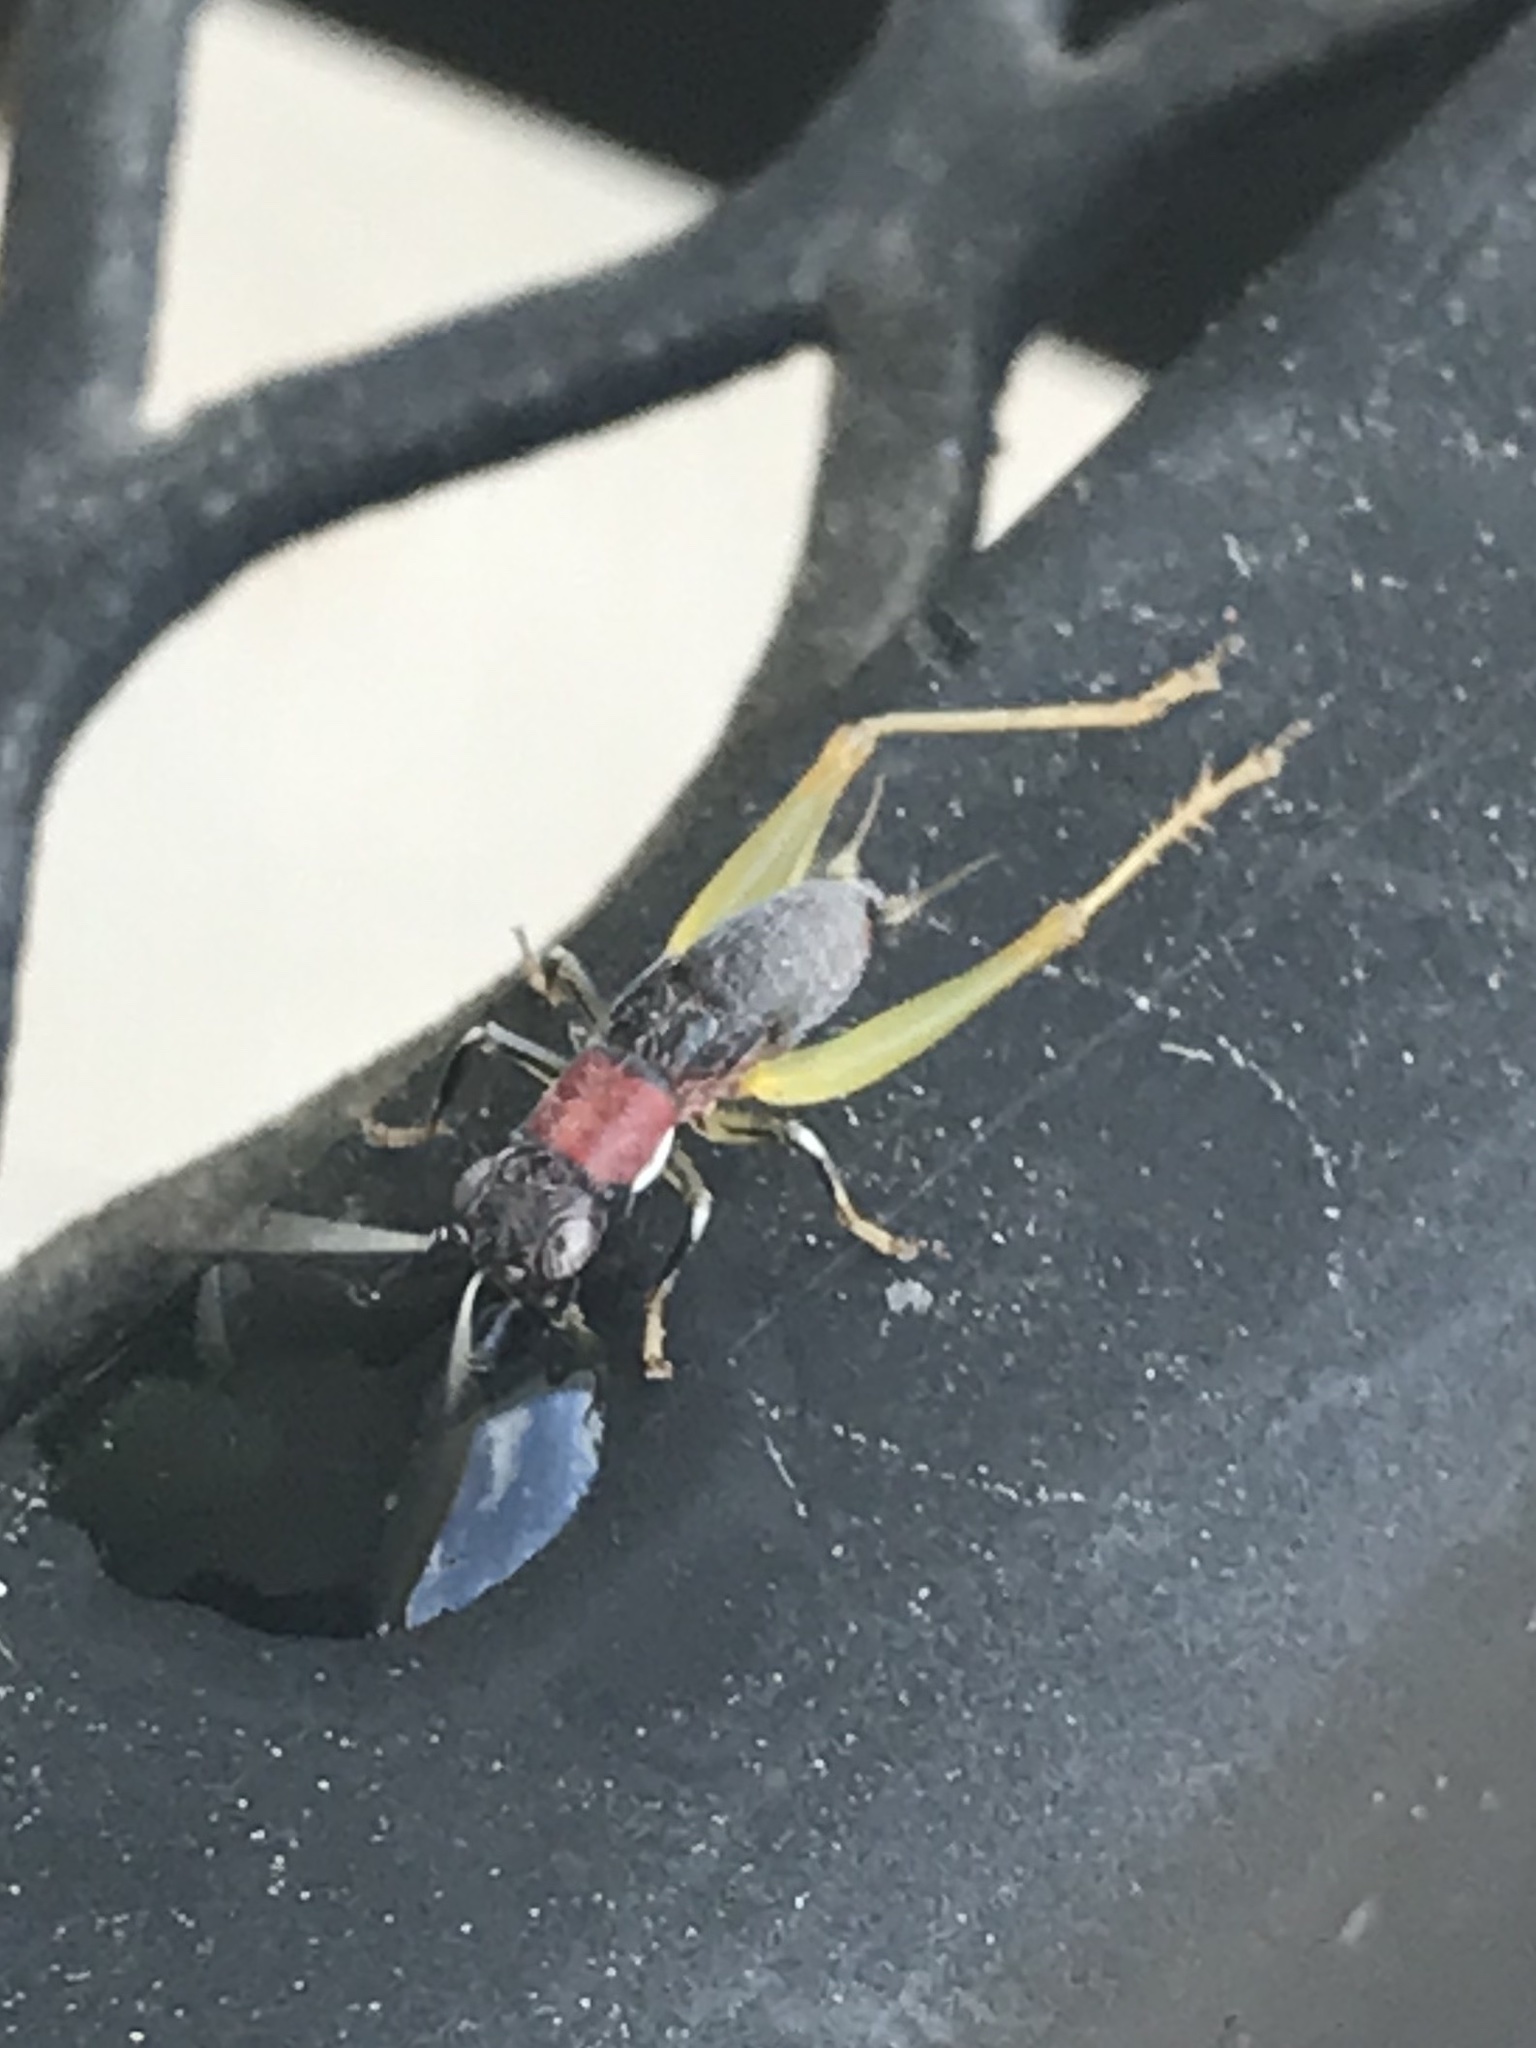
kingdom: Animalia
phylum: Arthropoda
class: Insecta
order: Orthoptera
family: Trigonidiidae
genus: Phyllopalpus
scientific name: Phyllopalpus pulchellus
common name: Handsome trig
